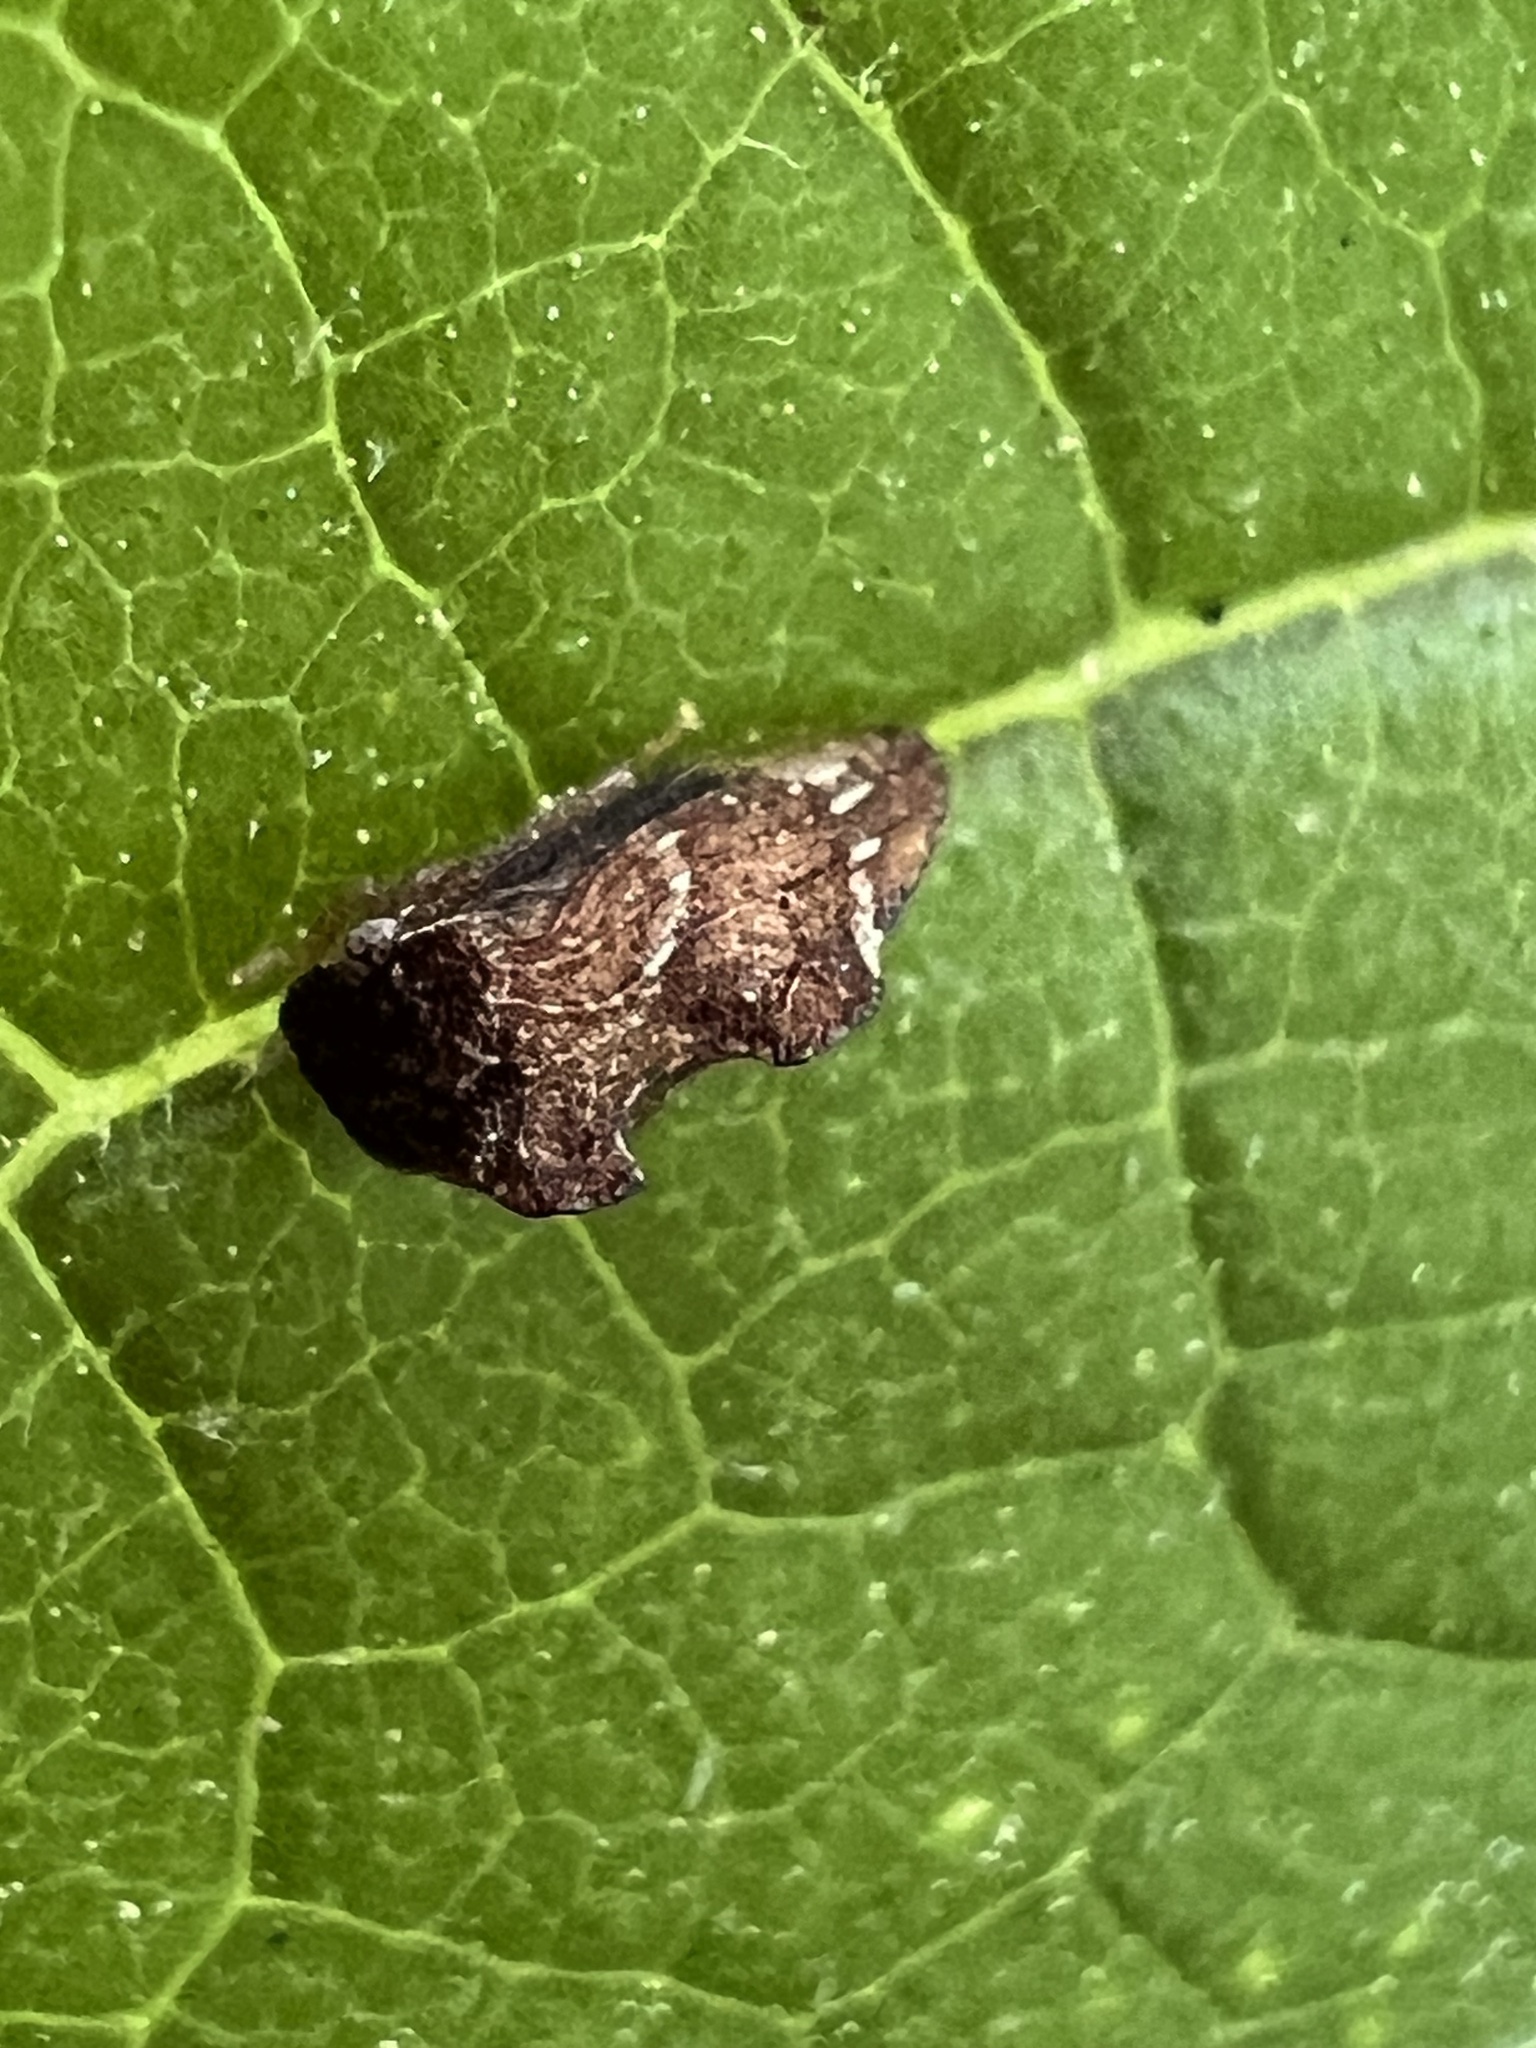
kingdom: Animalia
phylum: Arthropoda
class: Insecta
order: Hemiptera
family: Membracidae
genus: Entylia
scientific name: Entylia carinata
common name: Keeled treehopper
